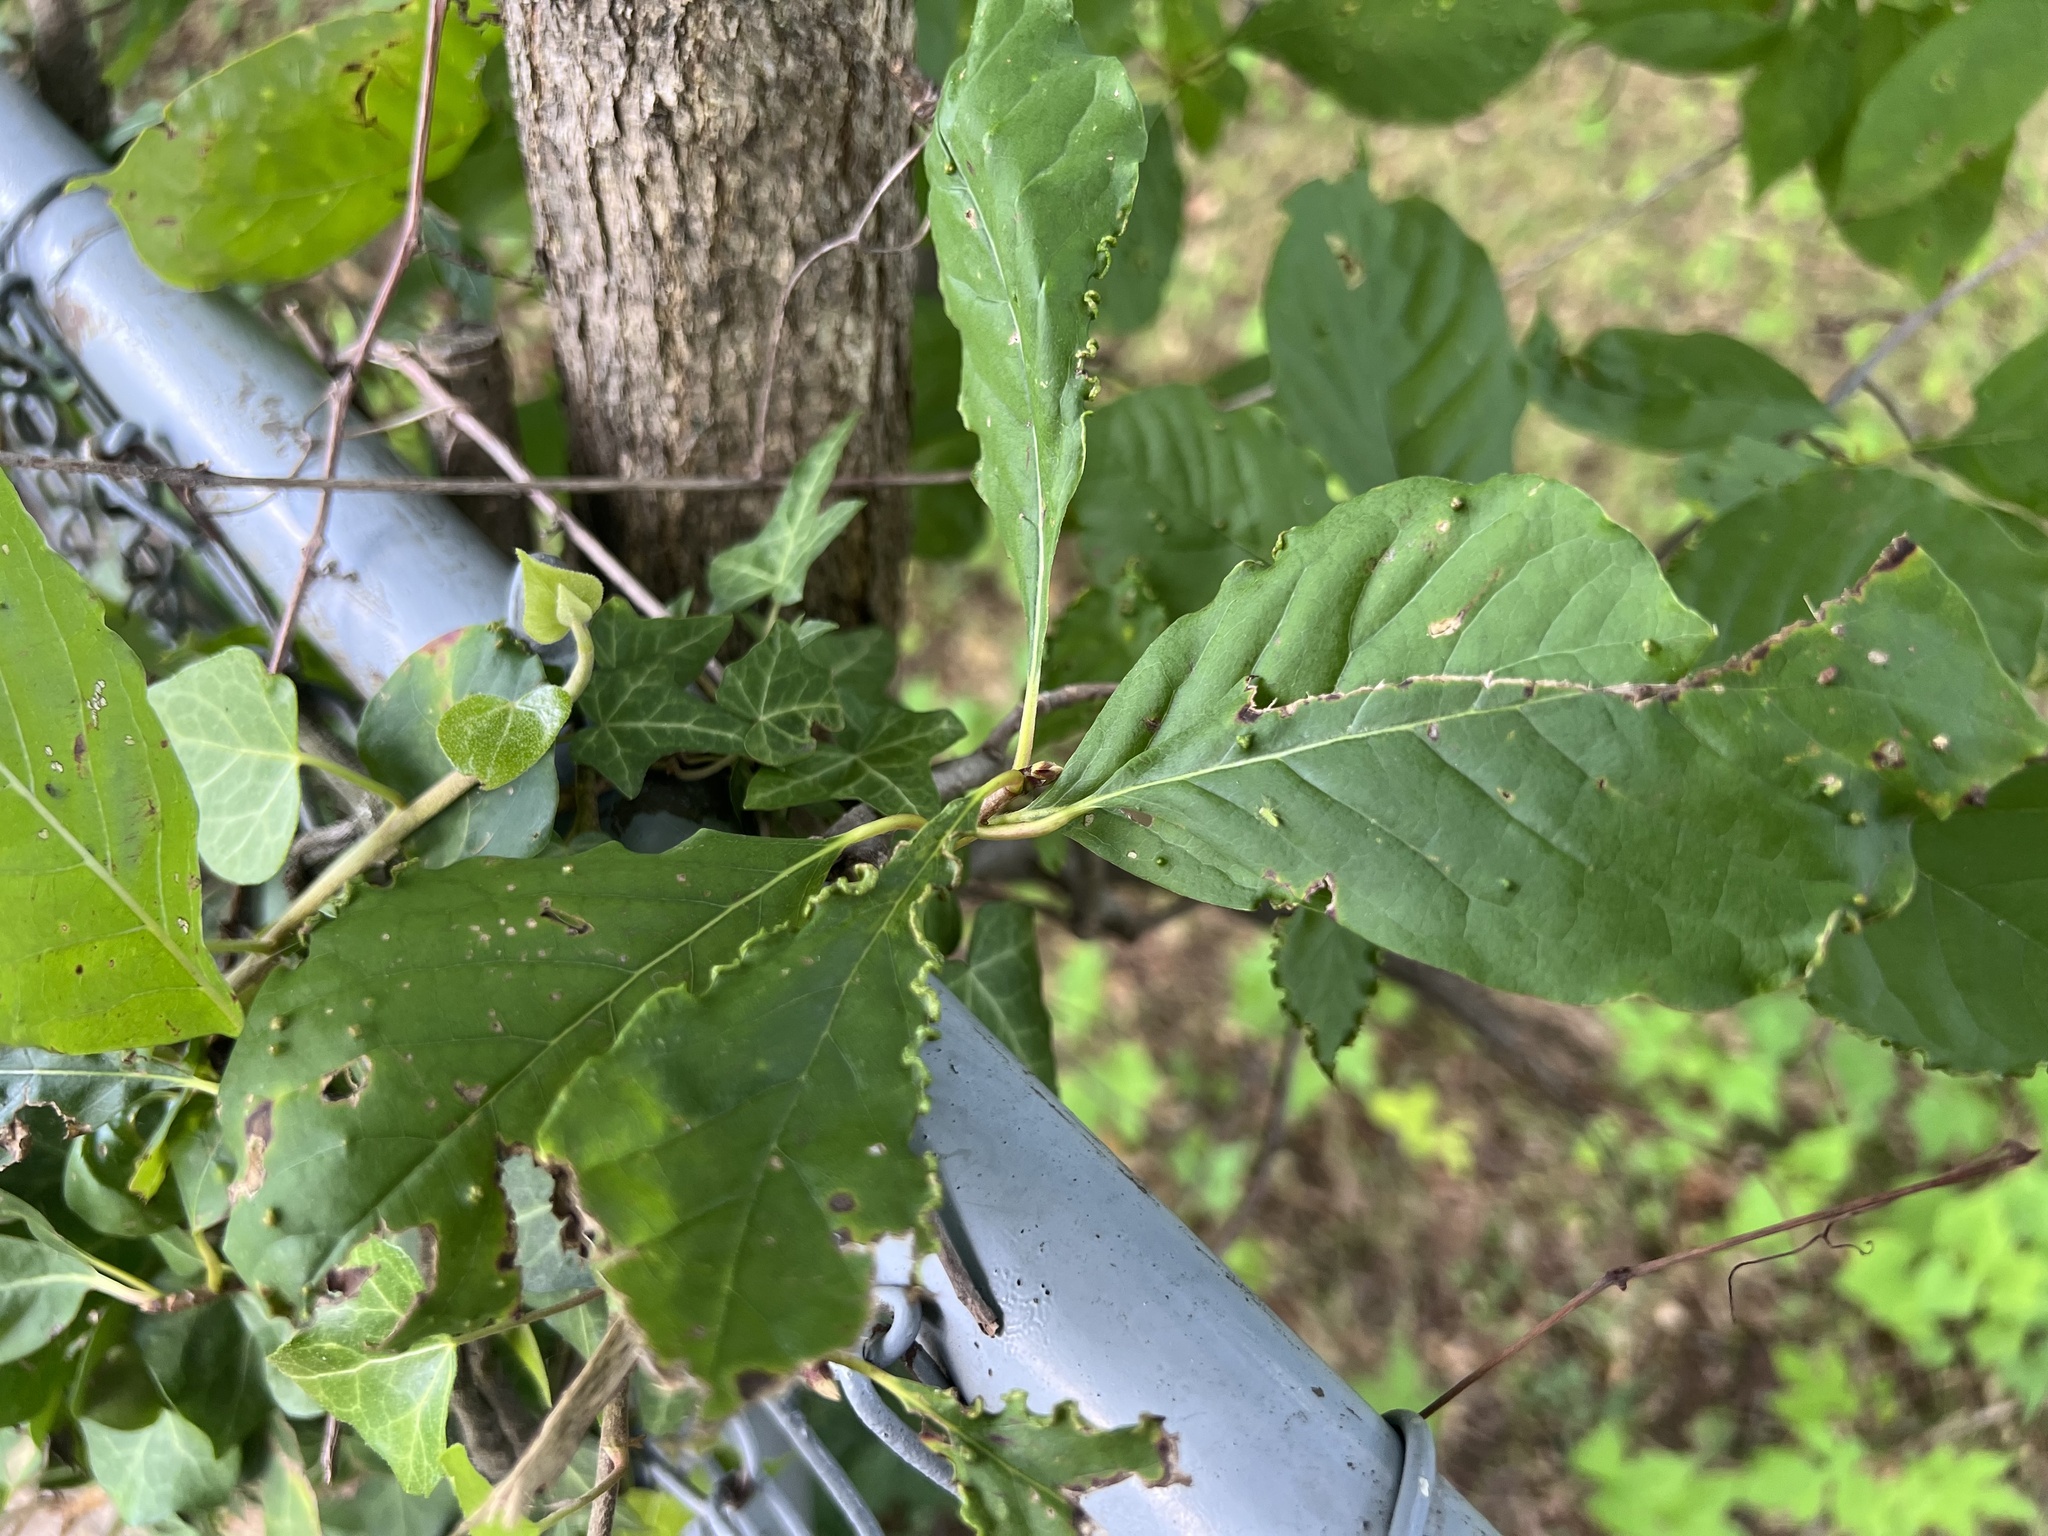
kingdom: Animalia
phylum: Arthropoda
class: Arachnida
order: Trombidiformes
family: Eriophyidae
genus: Aceria
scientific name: Aceria
